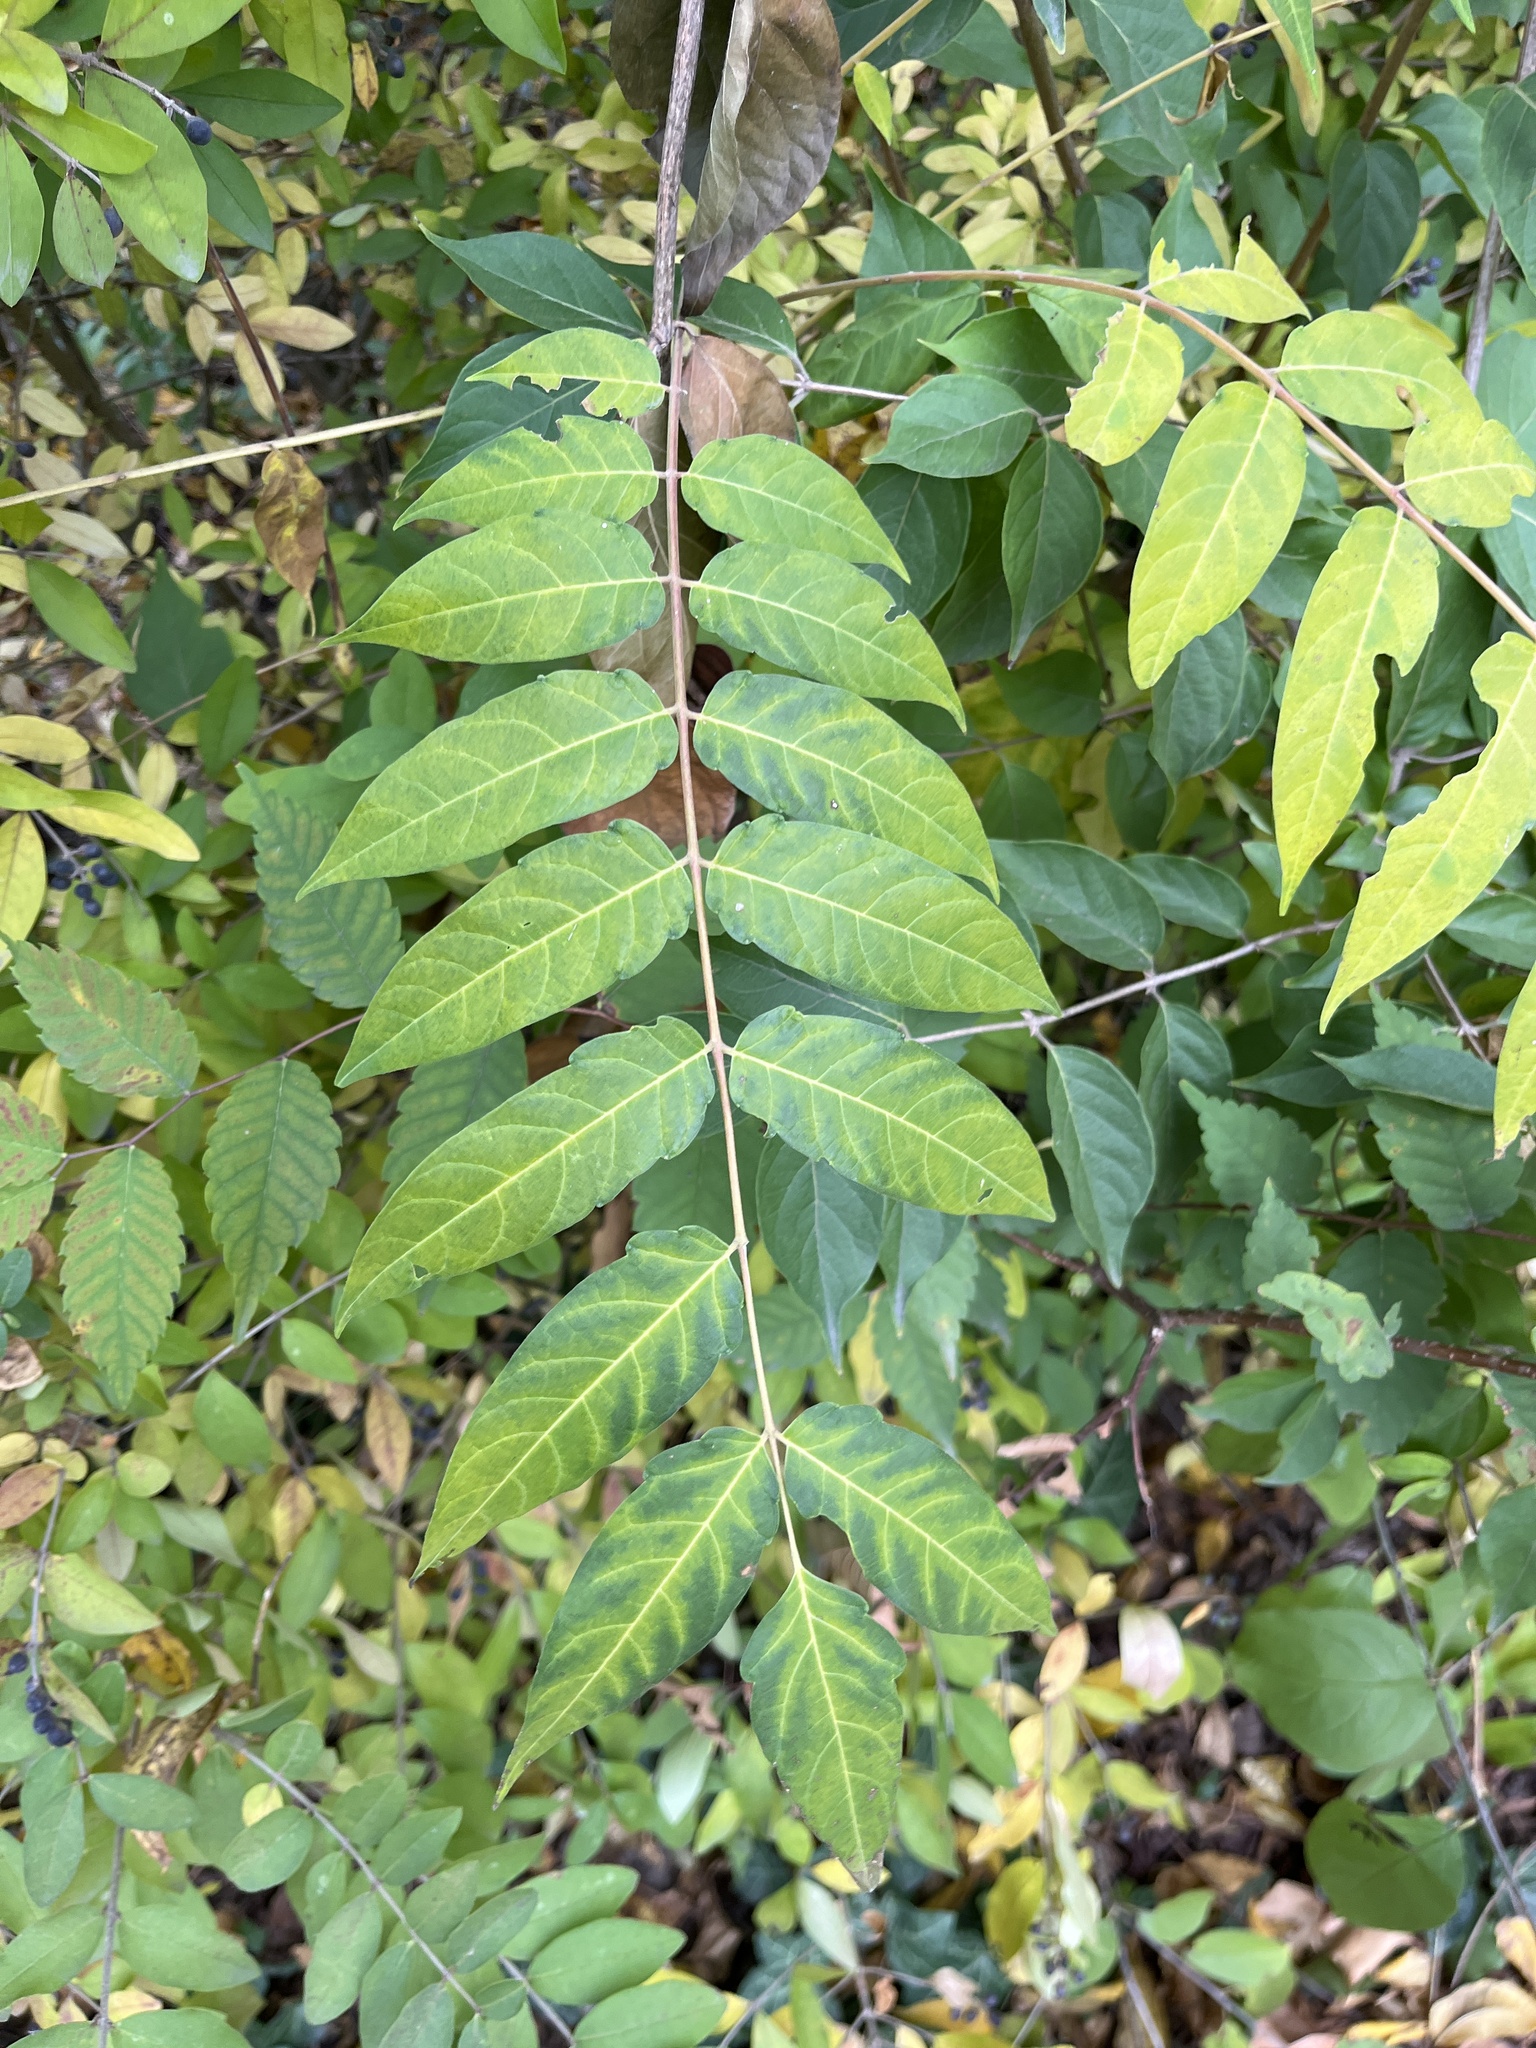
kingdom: Plantae
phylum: Tracheophyta
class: Magnoliopsida
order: Sapindales
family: Simaroubaceae
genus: Ailanthus
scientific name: Ailanthus altissima
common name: Tree-of-heaven
